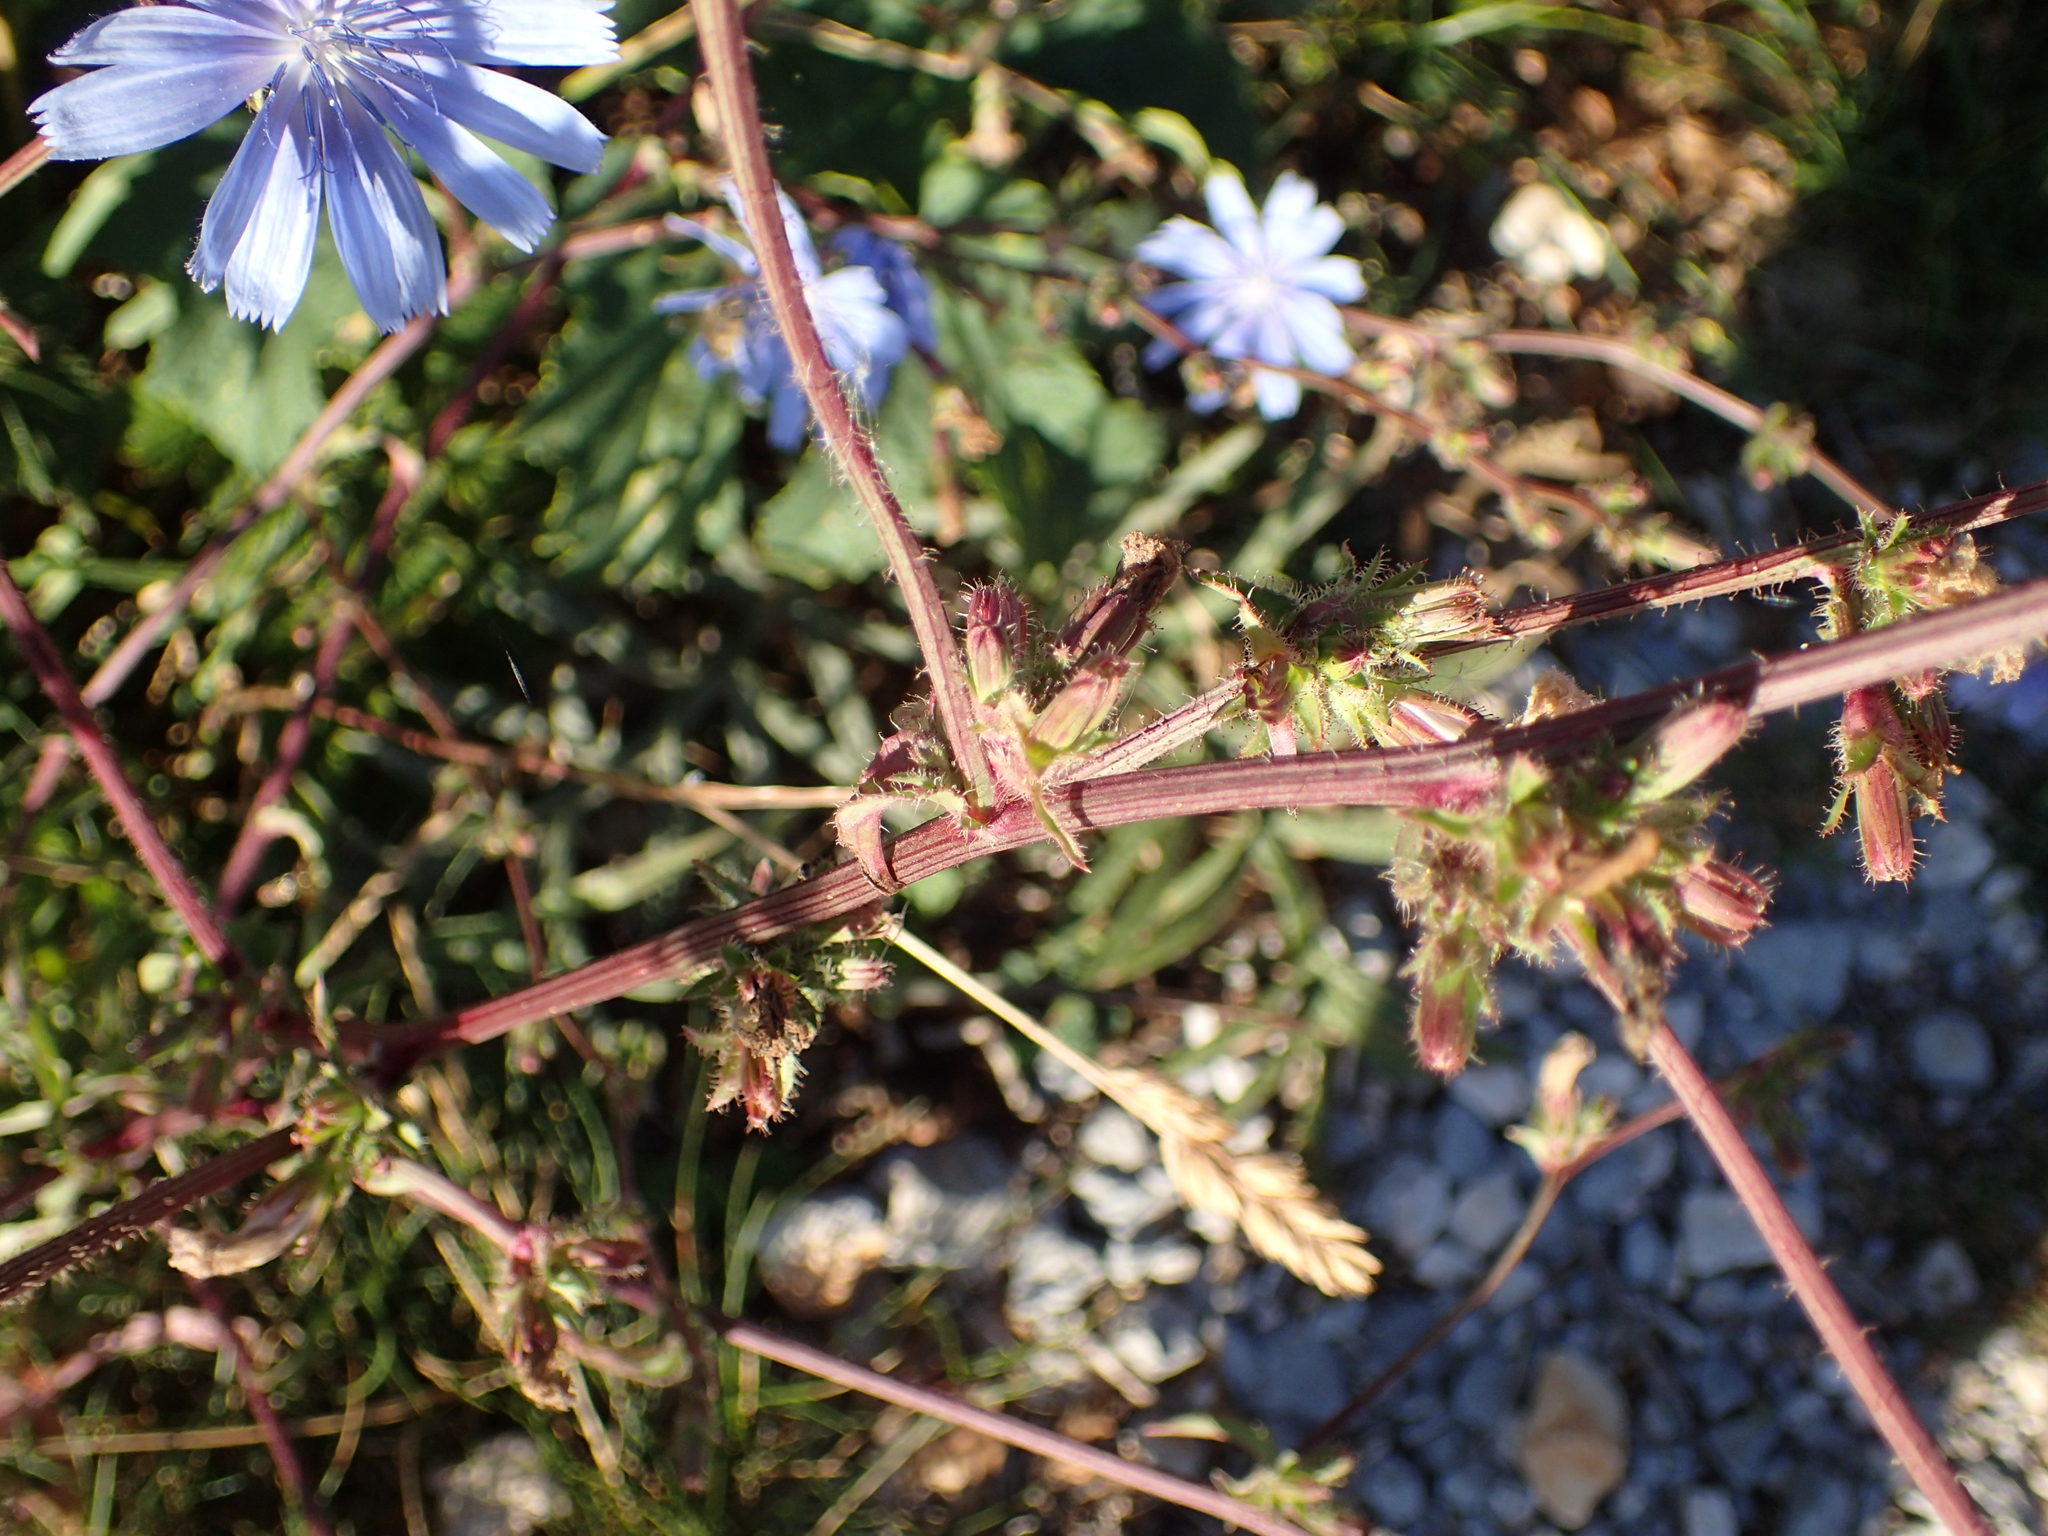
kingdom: Plantae
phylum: Tracheophyta
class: Magnoliopsida
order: Asterales
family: Asteraceae
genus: Cichorium
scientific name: Cichorium intybus
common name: Chicory
